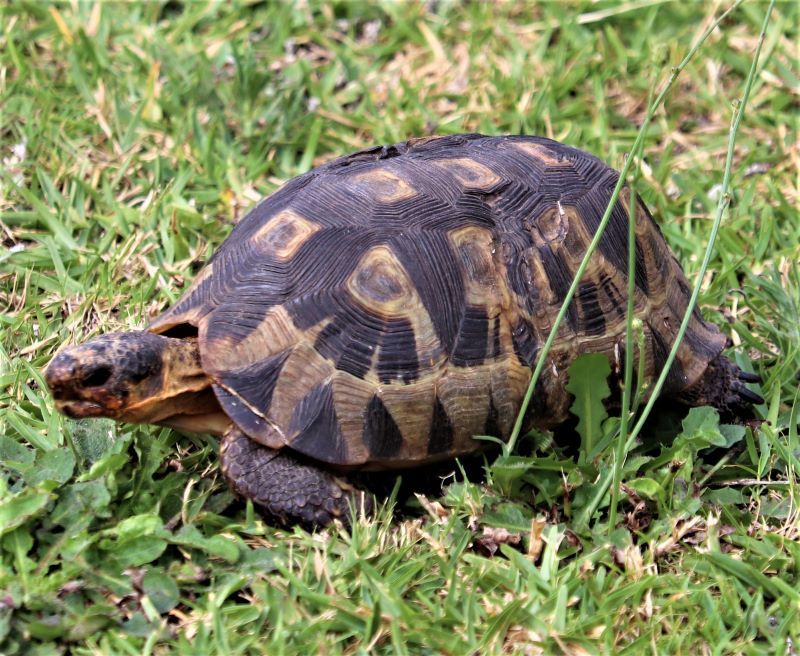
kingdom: Animalia
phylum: Chordata
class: Testudines
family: Testudinidae
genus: Chersina
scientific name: Chersina angulata
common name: South african bowsprit tortoise
